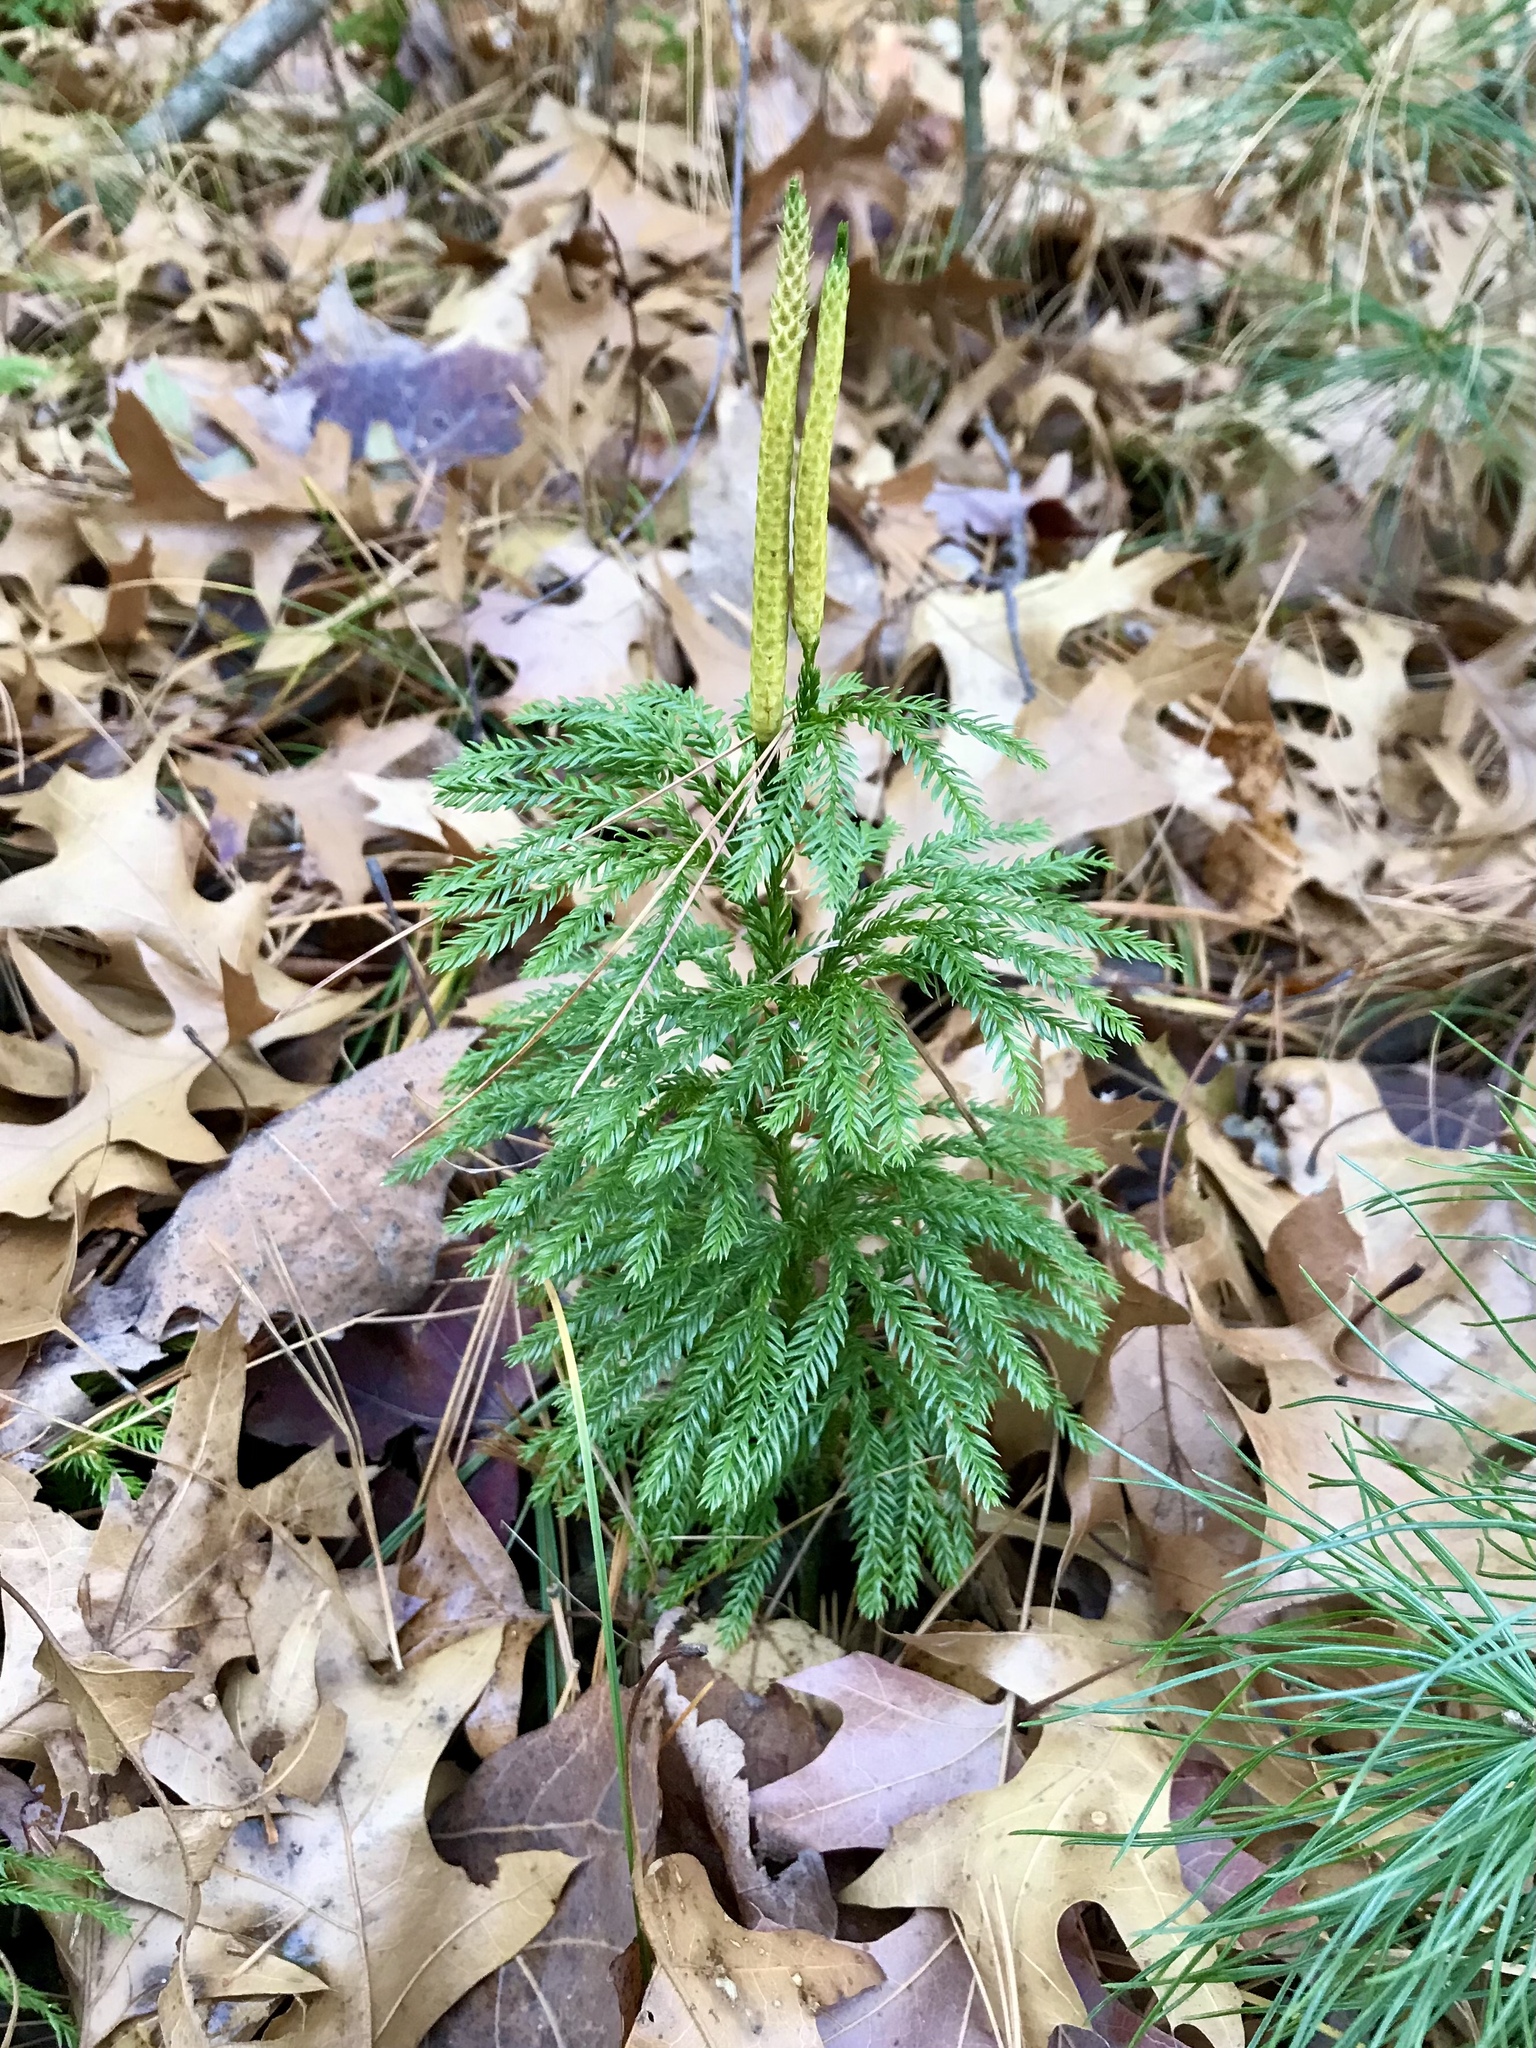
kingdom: Plantae
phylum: Tracheophyta
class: Lycopodiopsida
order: Lycopodiales
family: Lycopodiaceae
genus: Dendrolycopodium
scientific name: Dendrolycopodium obscurum
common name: Common ground-pine
